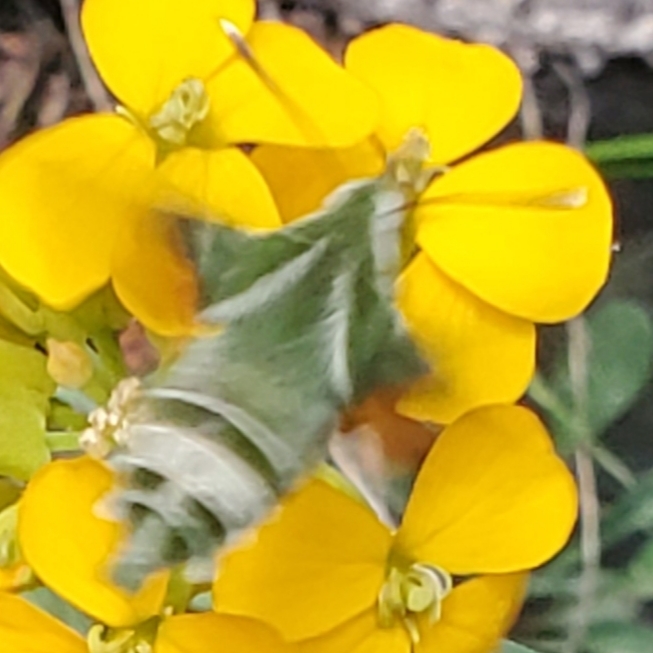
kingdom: Animalia
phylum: Arthropoda
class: Insecta
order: Lepidoptera
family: Sphingidae
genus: Proserpinus
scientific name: Proserpinus clarkiae
